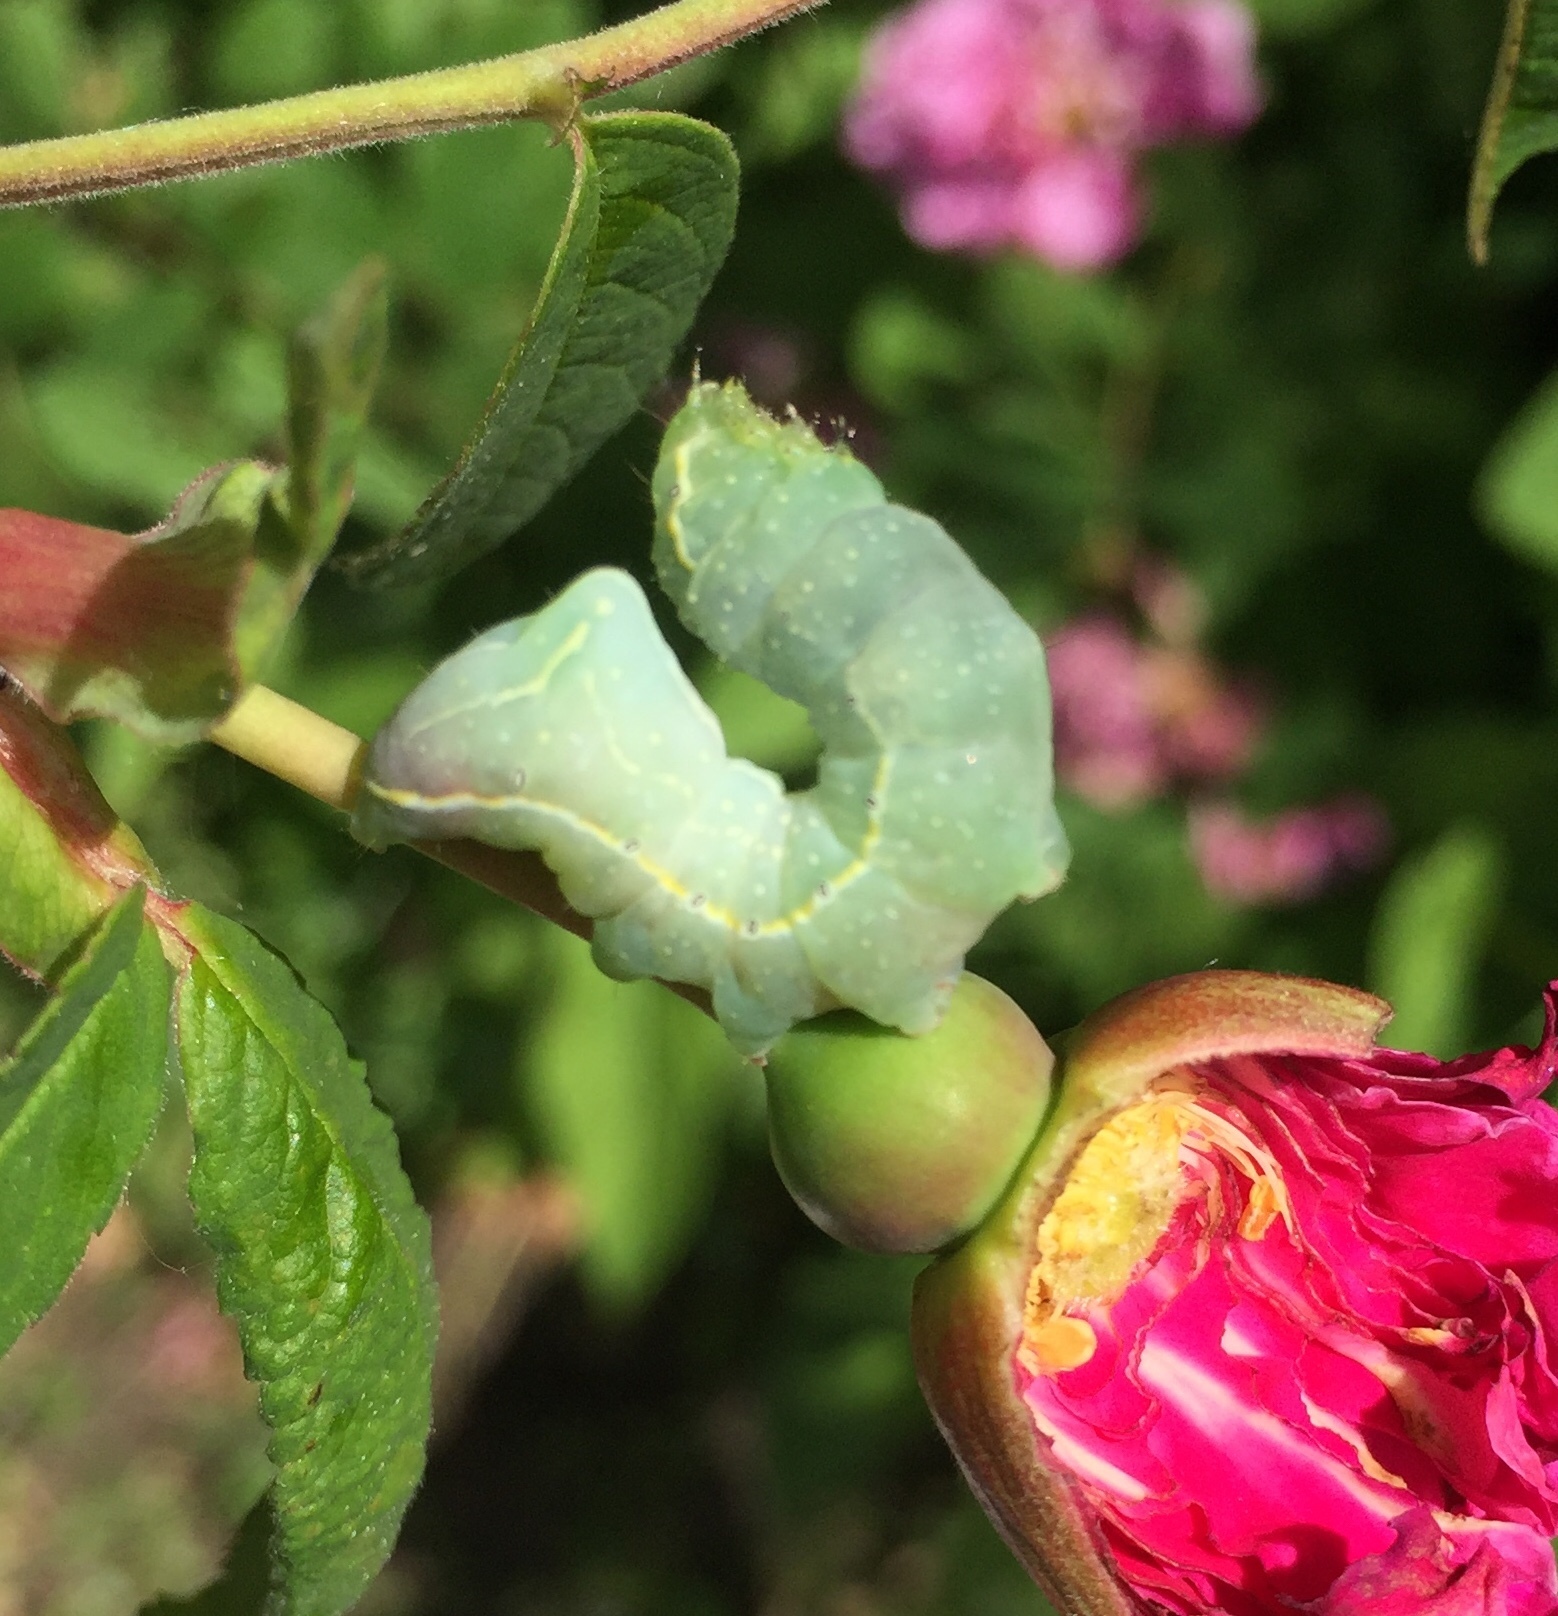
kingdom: Animalia
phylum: Arthropoda
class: Insecta
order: Lepidoptera
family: Noctuidae
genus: Amphipyra
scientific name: Amphipyra pyramidoides
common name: American copper underwing
